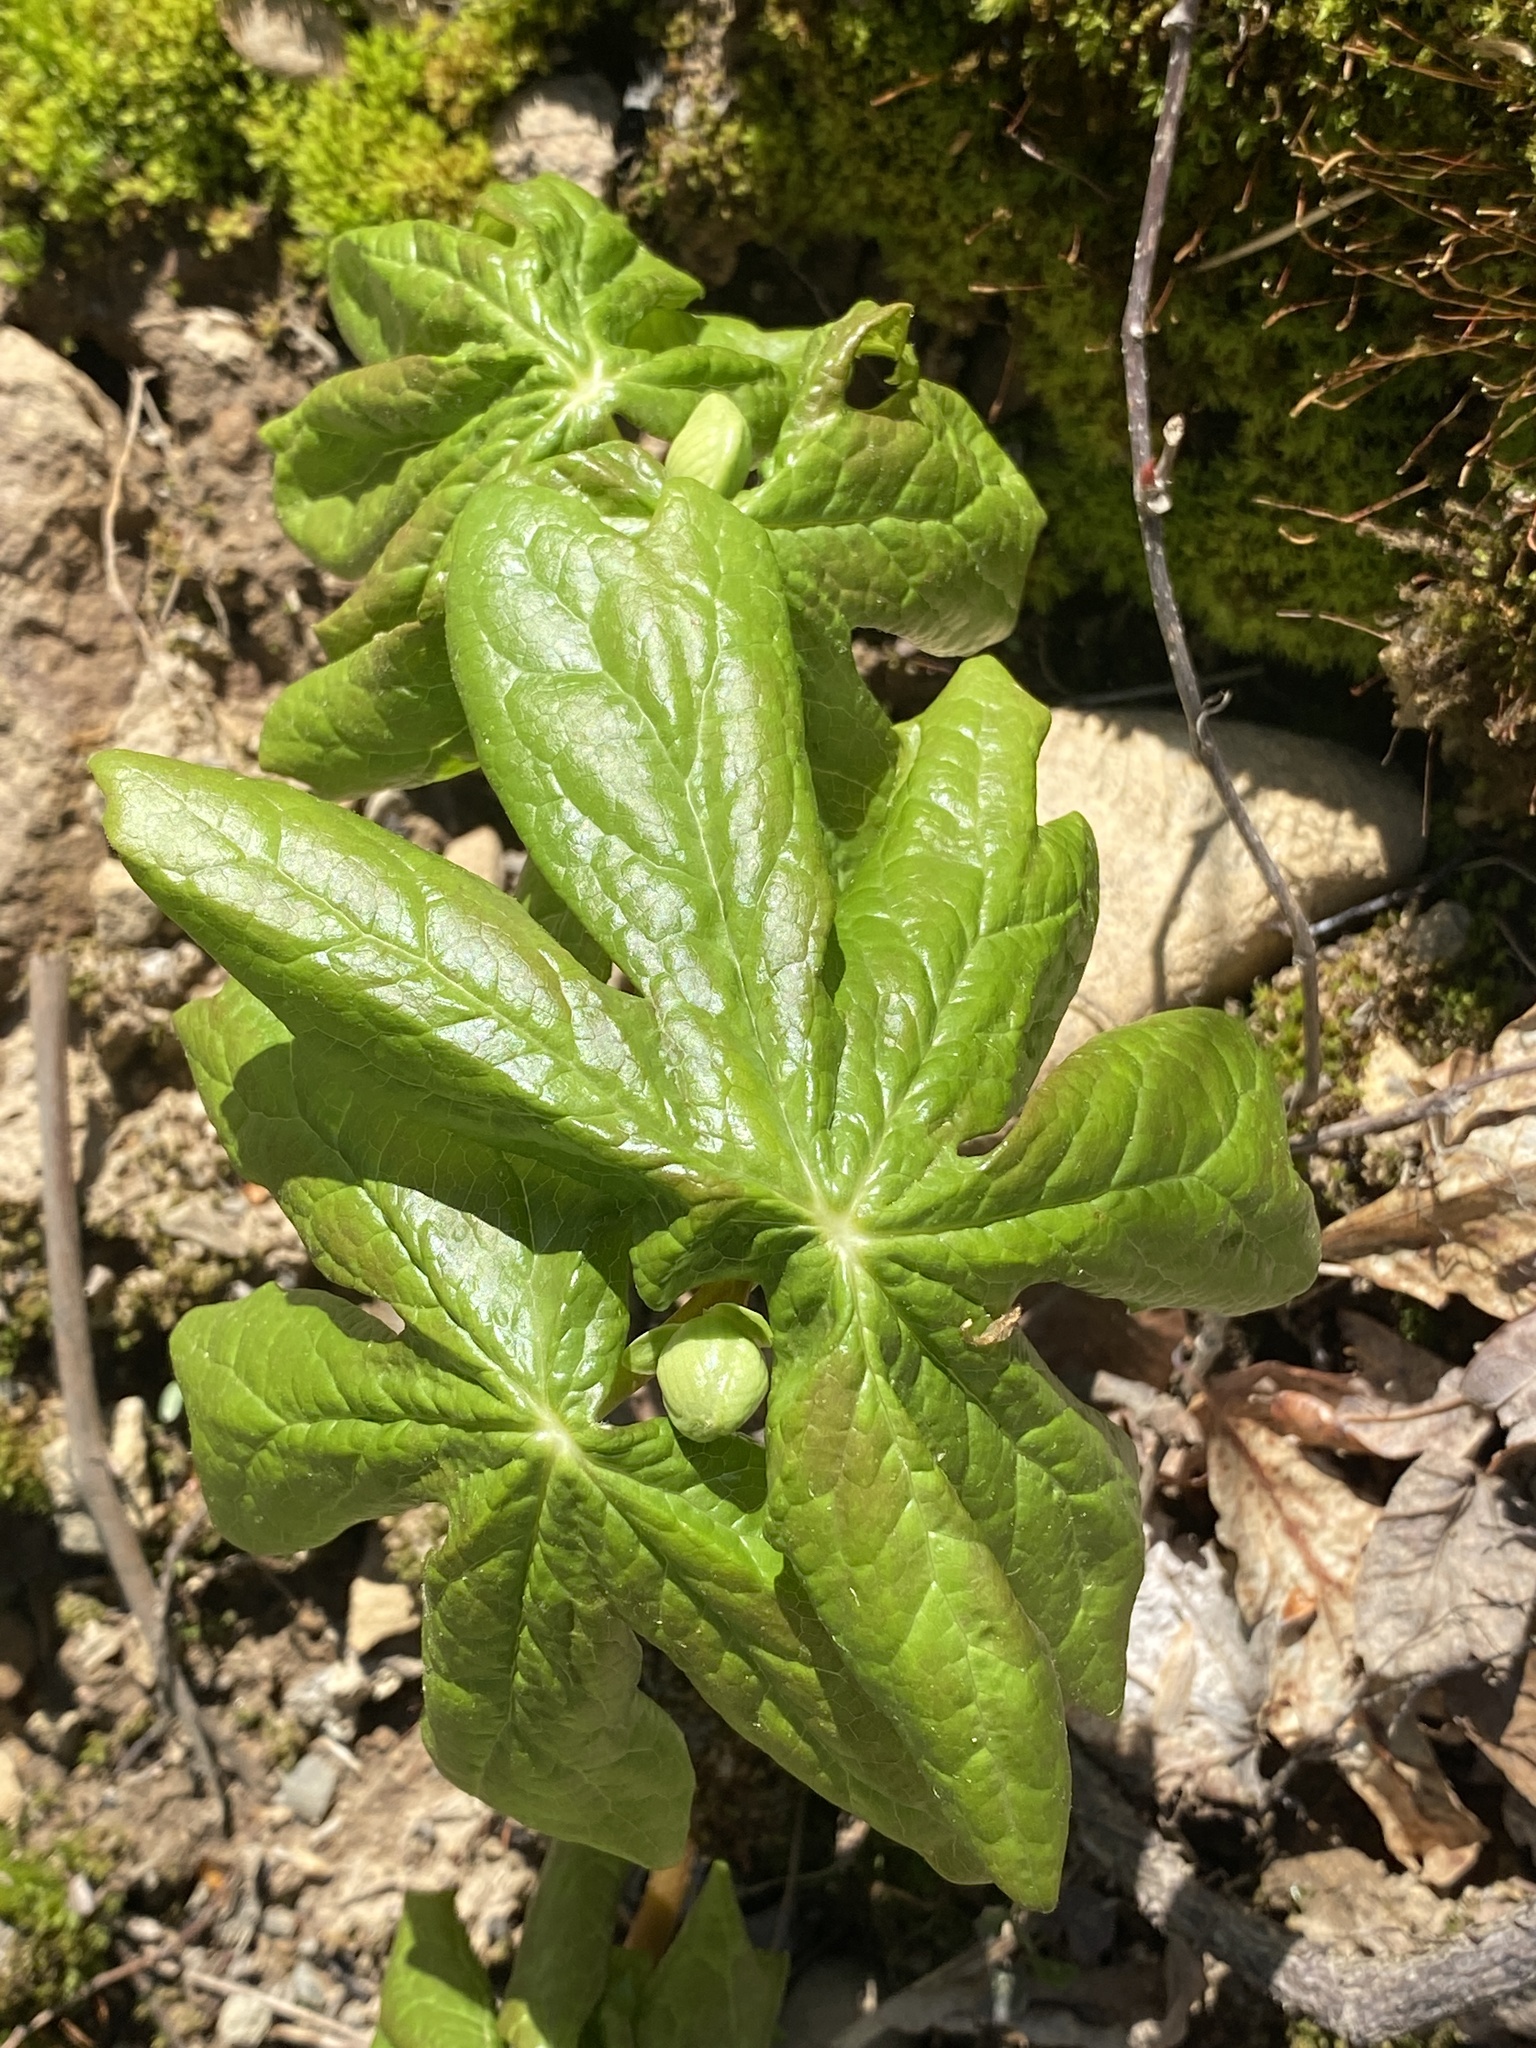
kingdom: Plantae
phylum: Tracheophyta
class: Magnoliopsida
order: Ranunculales
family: Berberidaceae
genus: Podophyllum
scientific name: Podophyllum peltatum
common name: Wild mandrake
